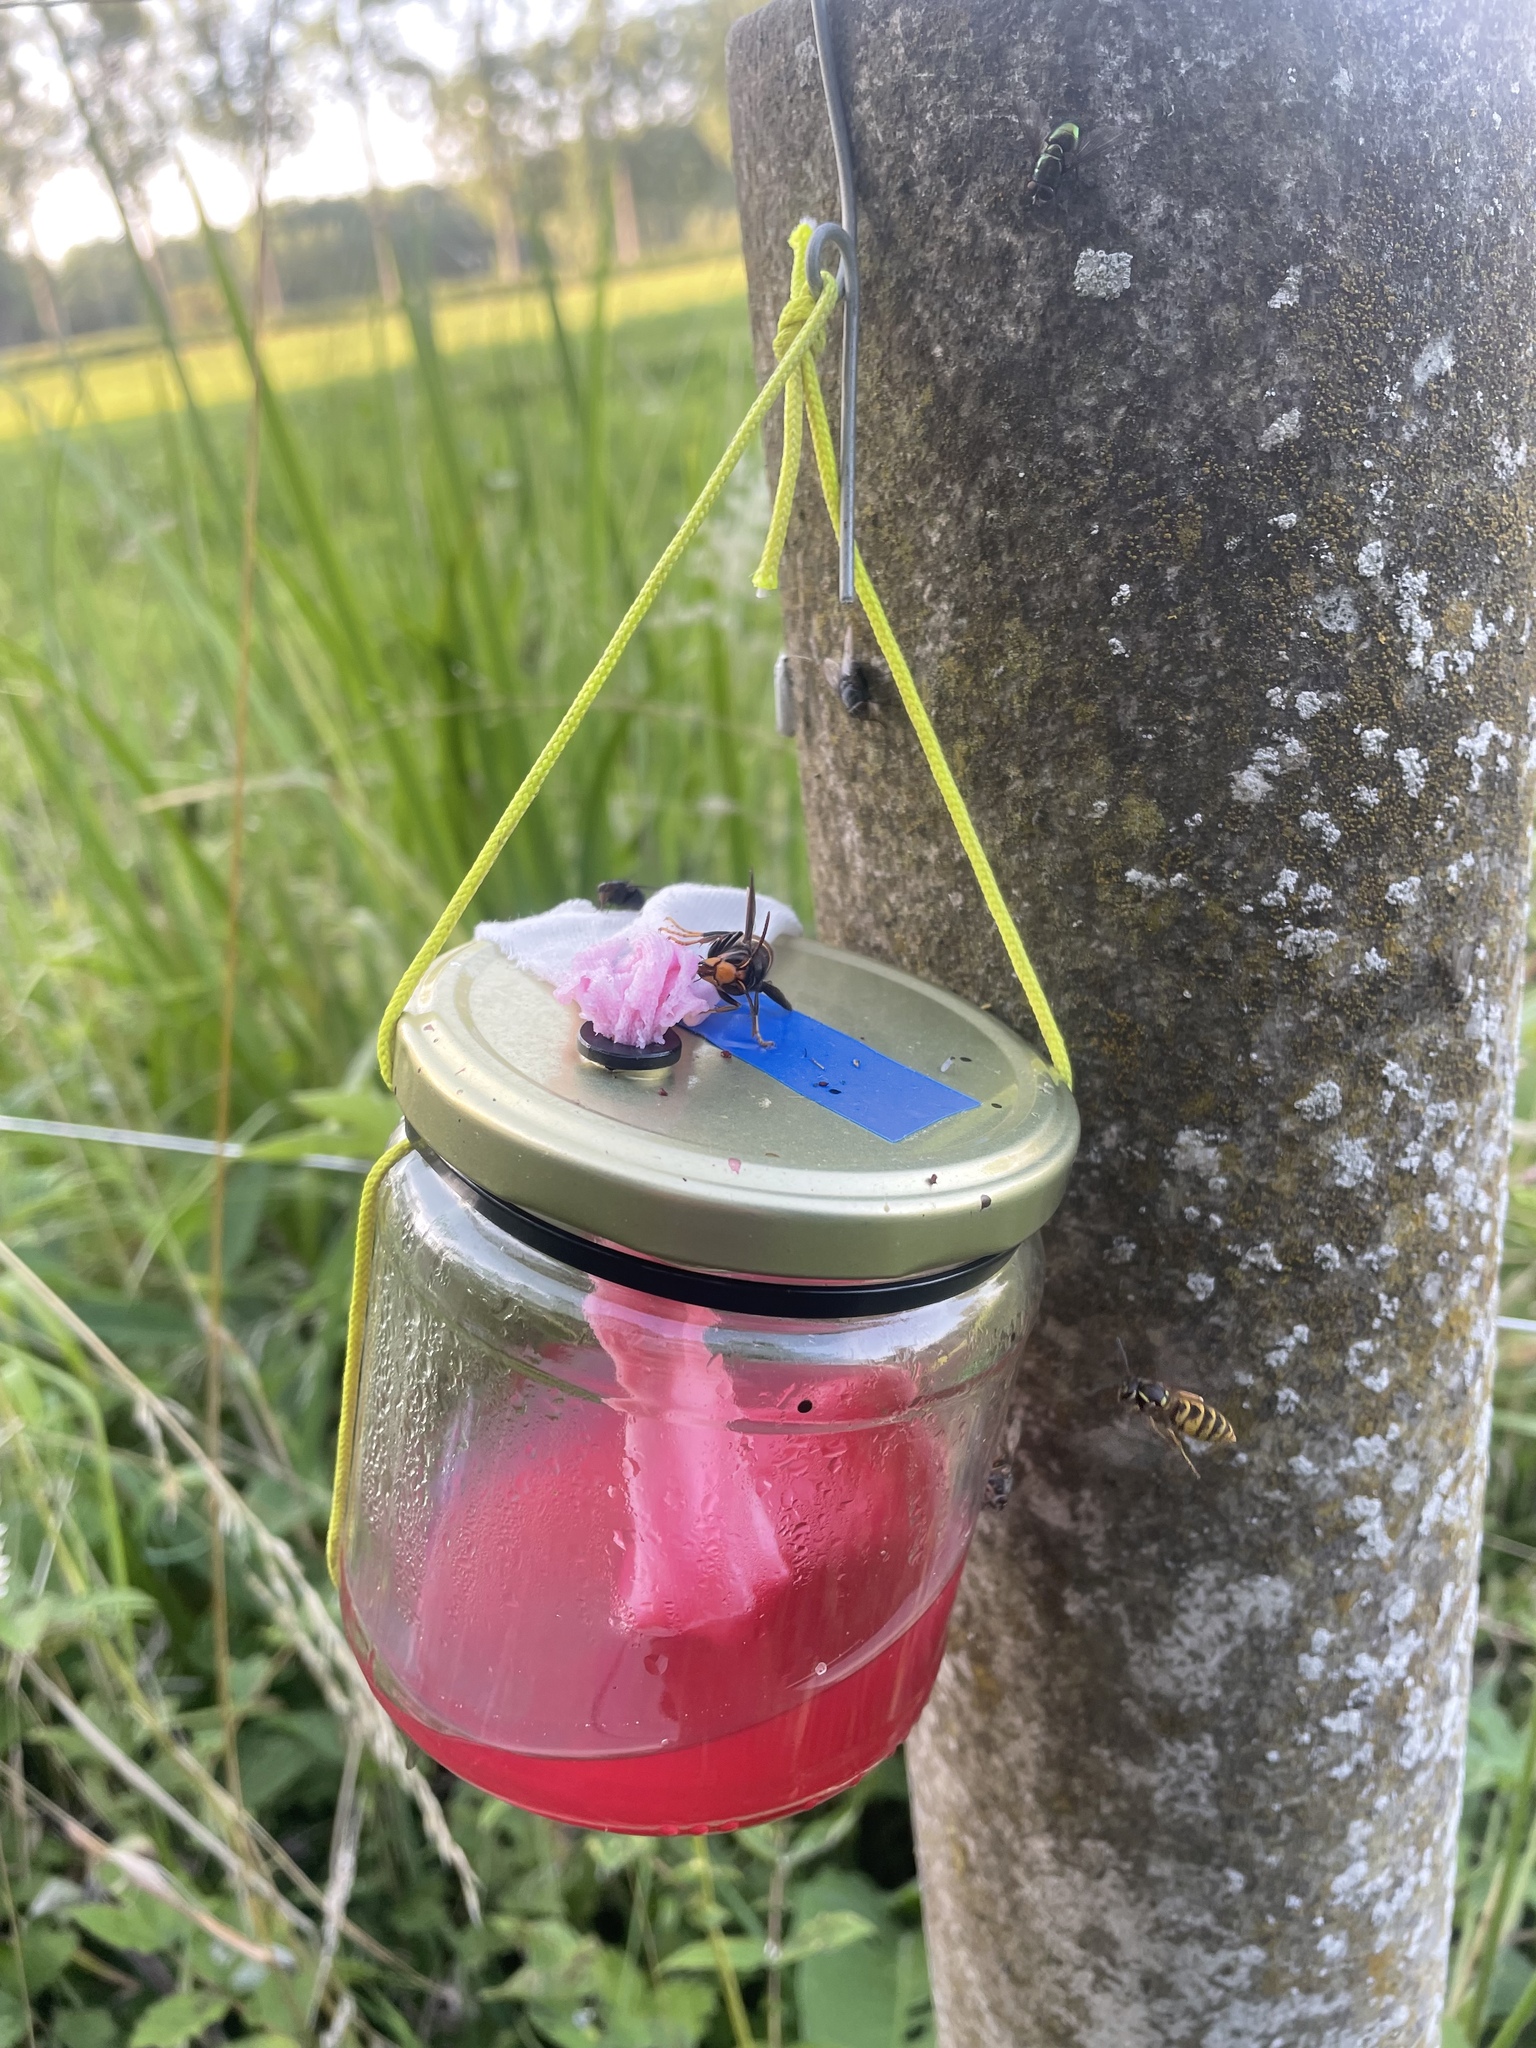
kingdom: Animalia
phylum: Arthropoda
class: Insecta
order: Hymenoptera
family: Vespidae
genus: Vespa
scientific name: Vespa velutina
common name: Asian hornet
